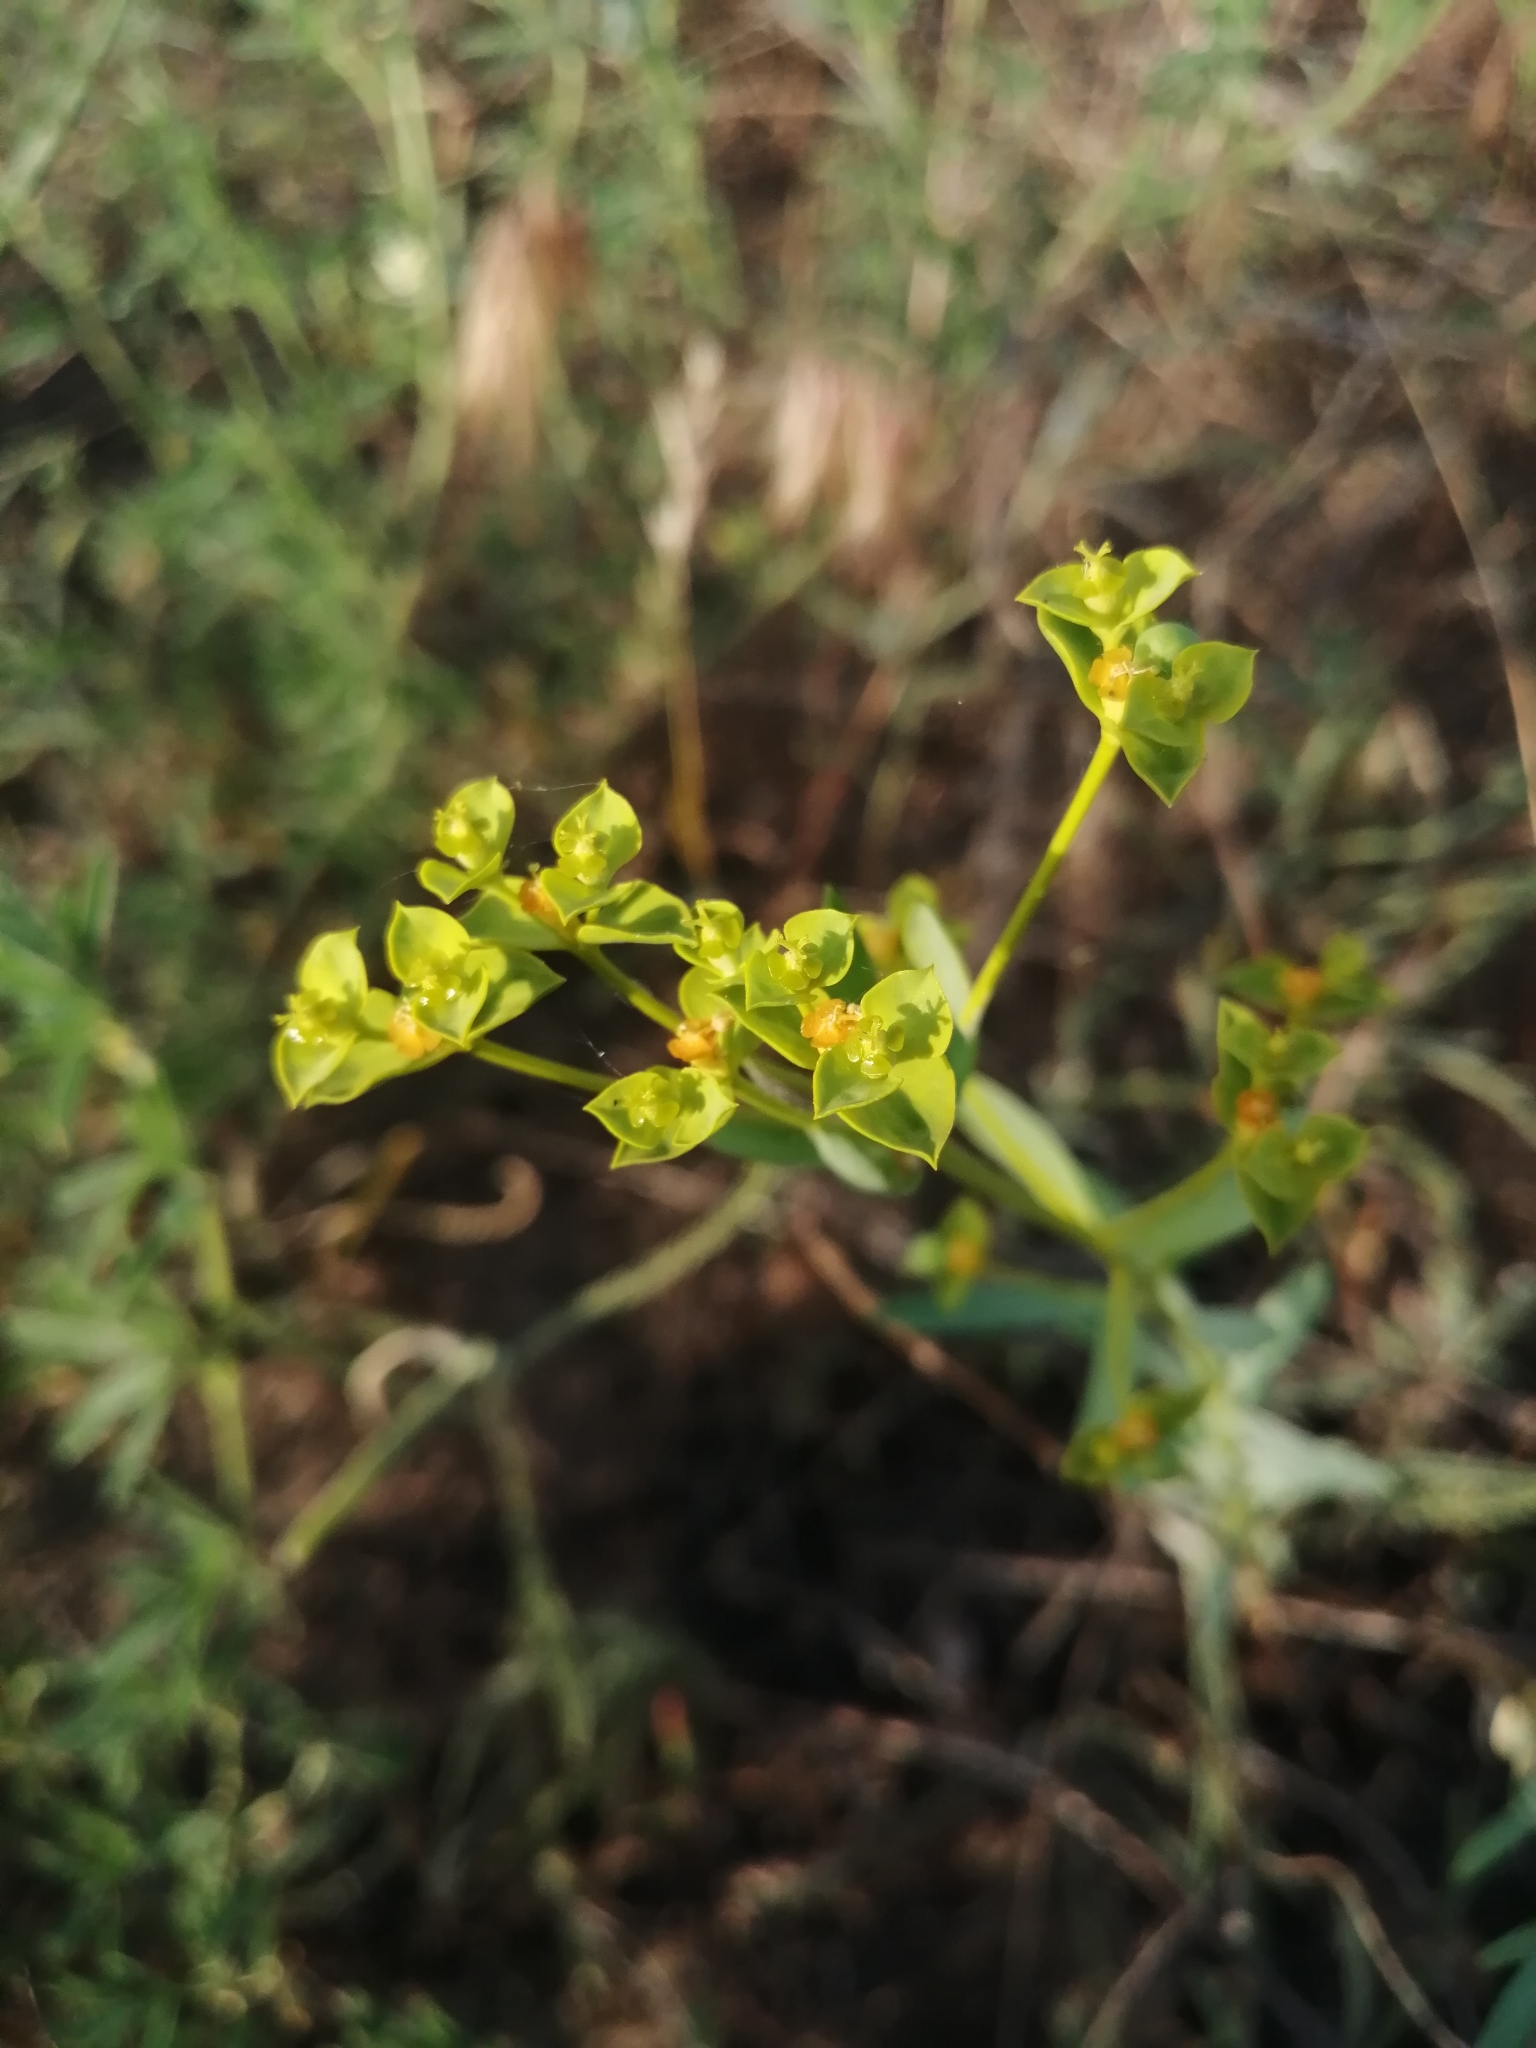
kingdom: Plantae
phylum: Tracheophyta
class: Magnoliopsida
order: Malpighiales
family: Euphorbiaceae
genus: Euphorbia
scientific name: Euphorbia seguieriana
